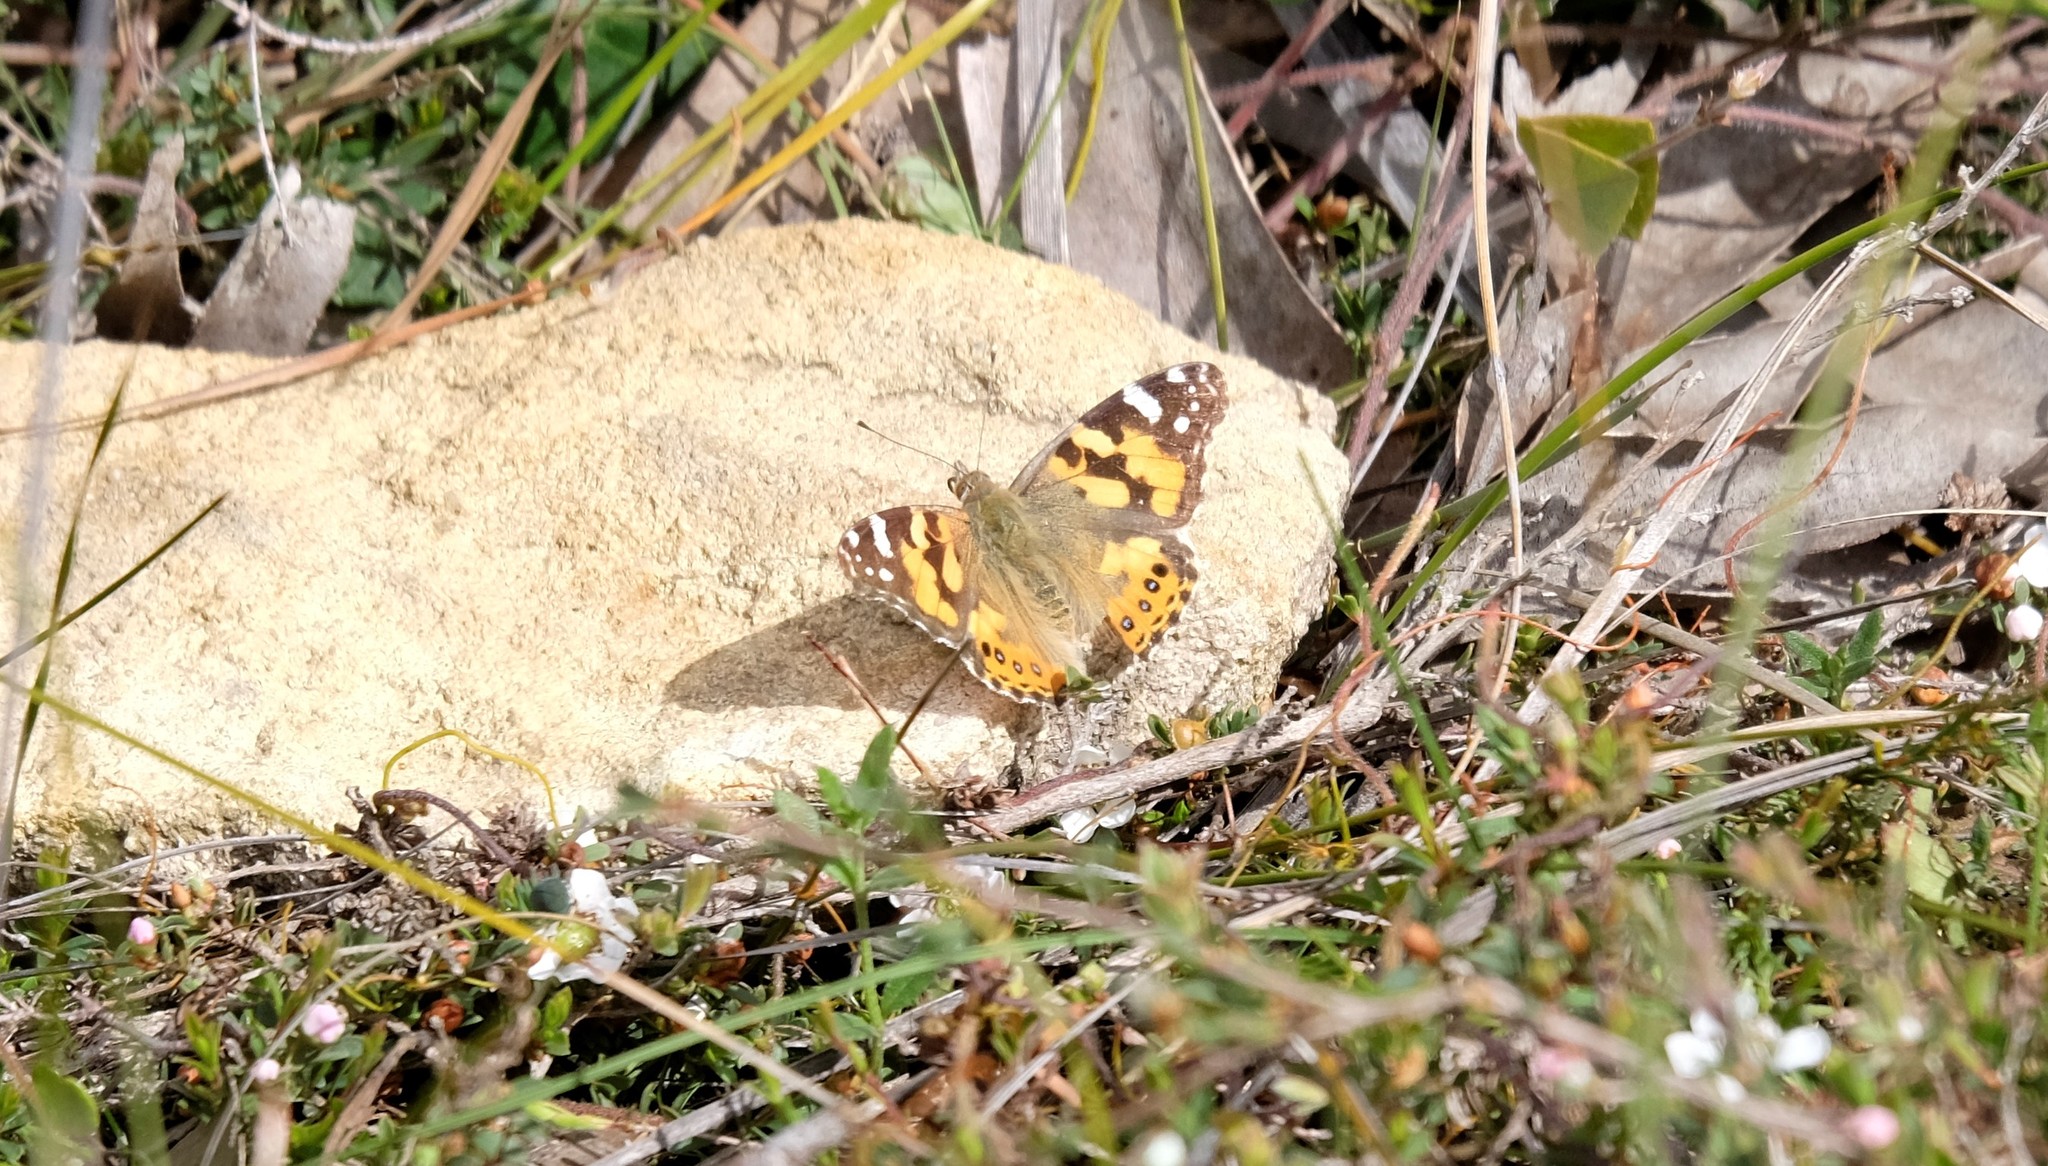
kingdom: Animalia
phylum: Arthropoda
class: Insecta
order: Lepidoptera
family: Nymphalidae
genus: Vanessa
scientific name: Vanessa kershawi
